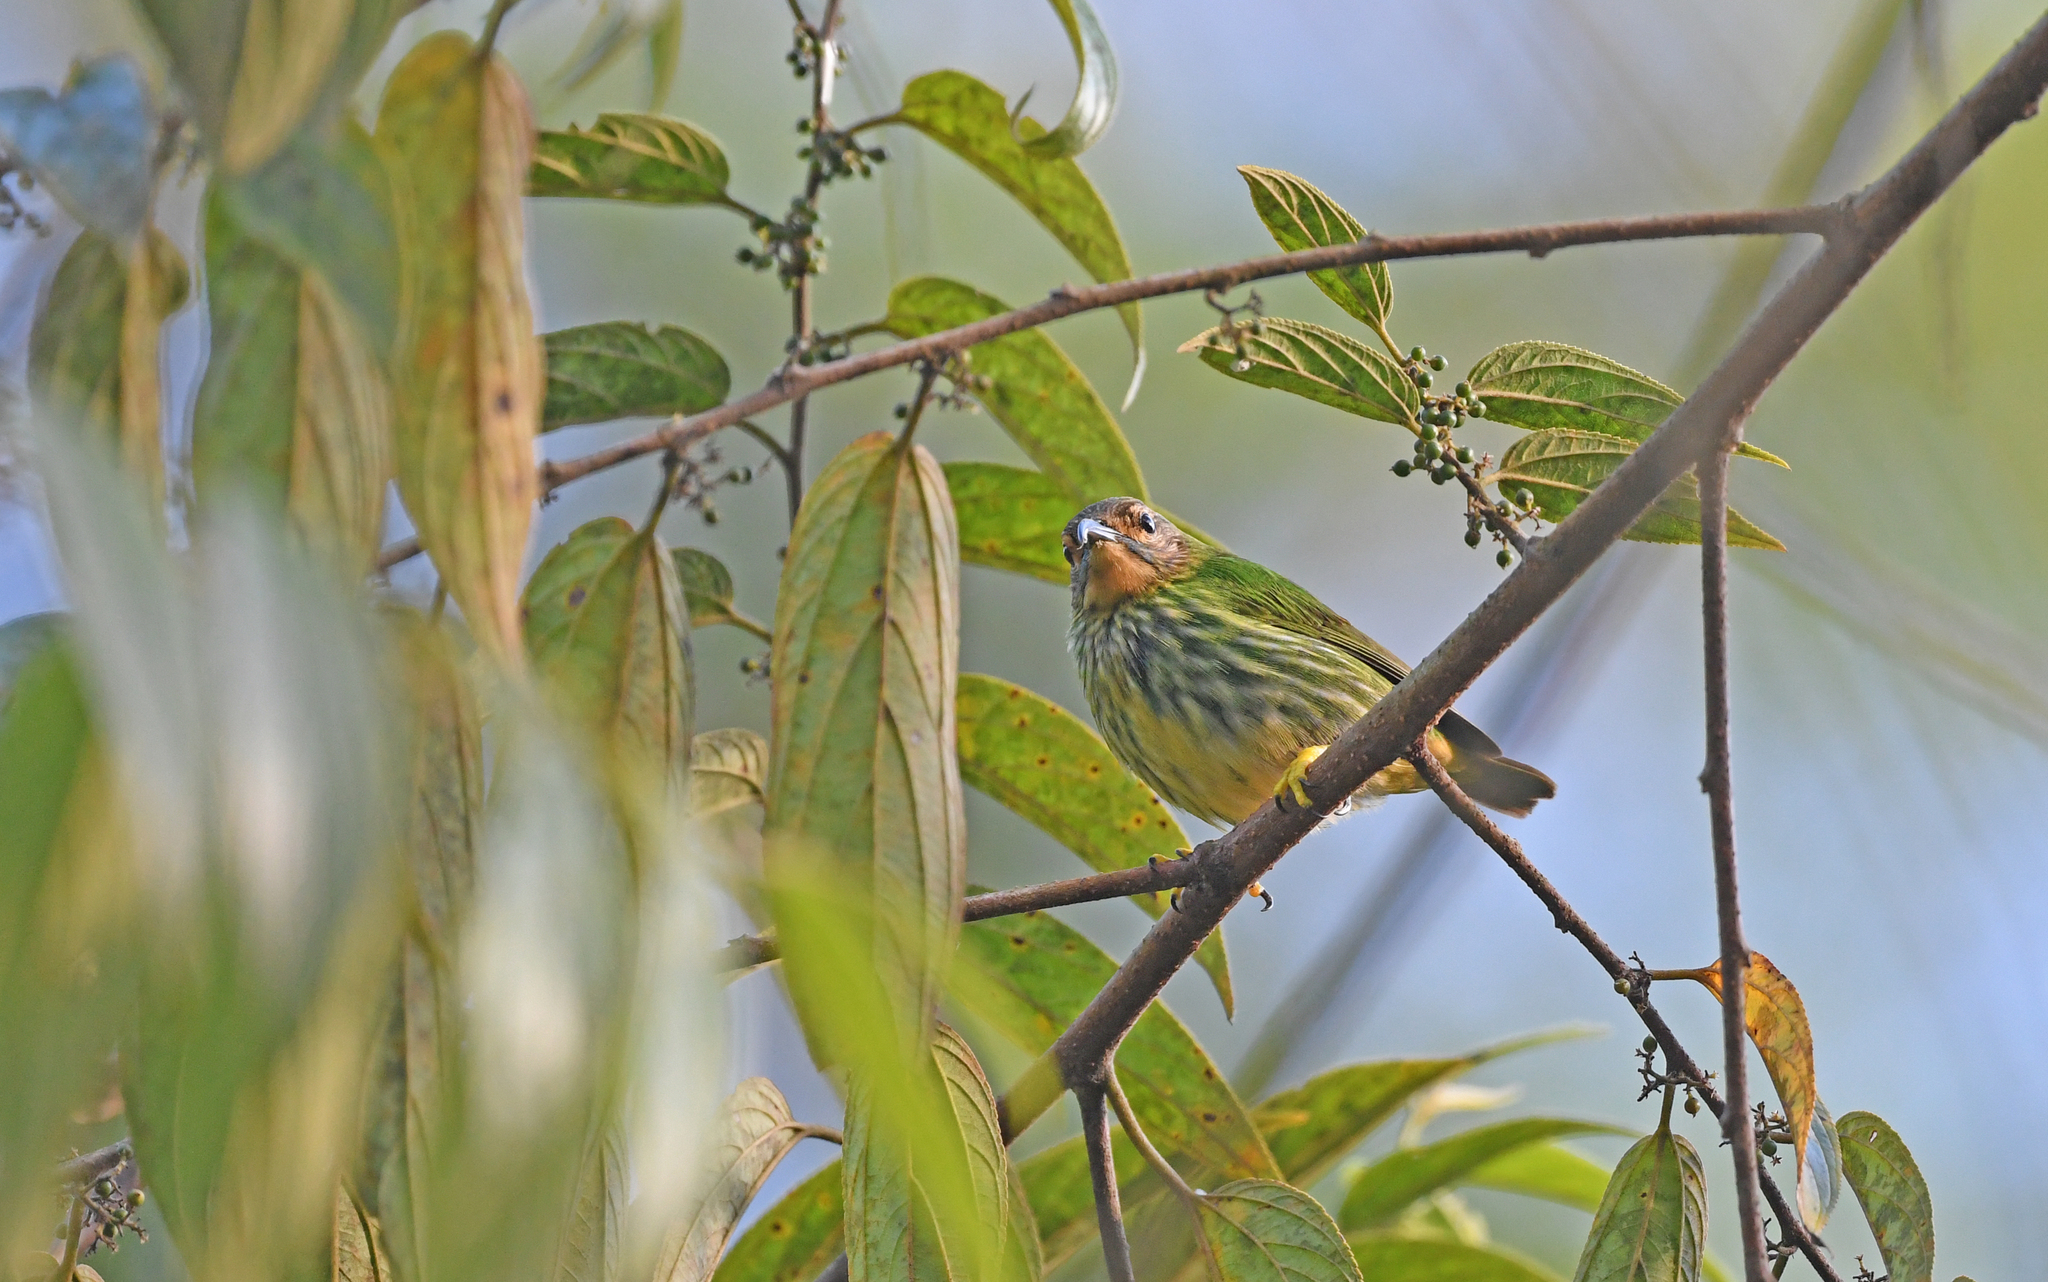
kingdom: Animalia
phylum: Chordata
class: Aves
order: Passeriformes
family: Thraupidae
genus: Cyanerpes
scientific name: Cyanerpes caeruleus
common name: Purple honeycreeper
